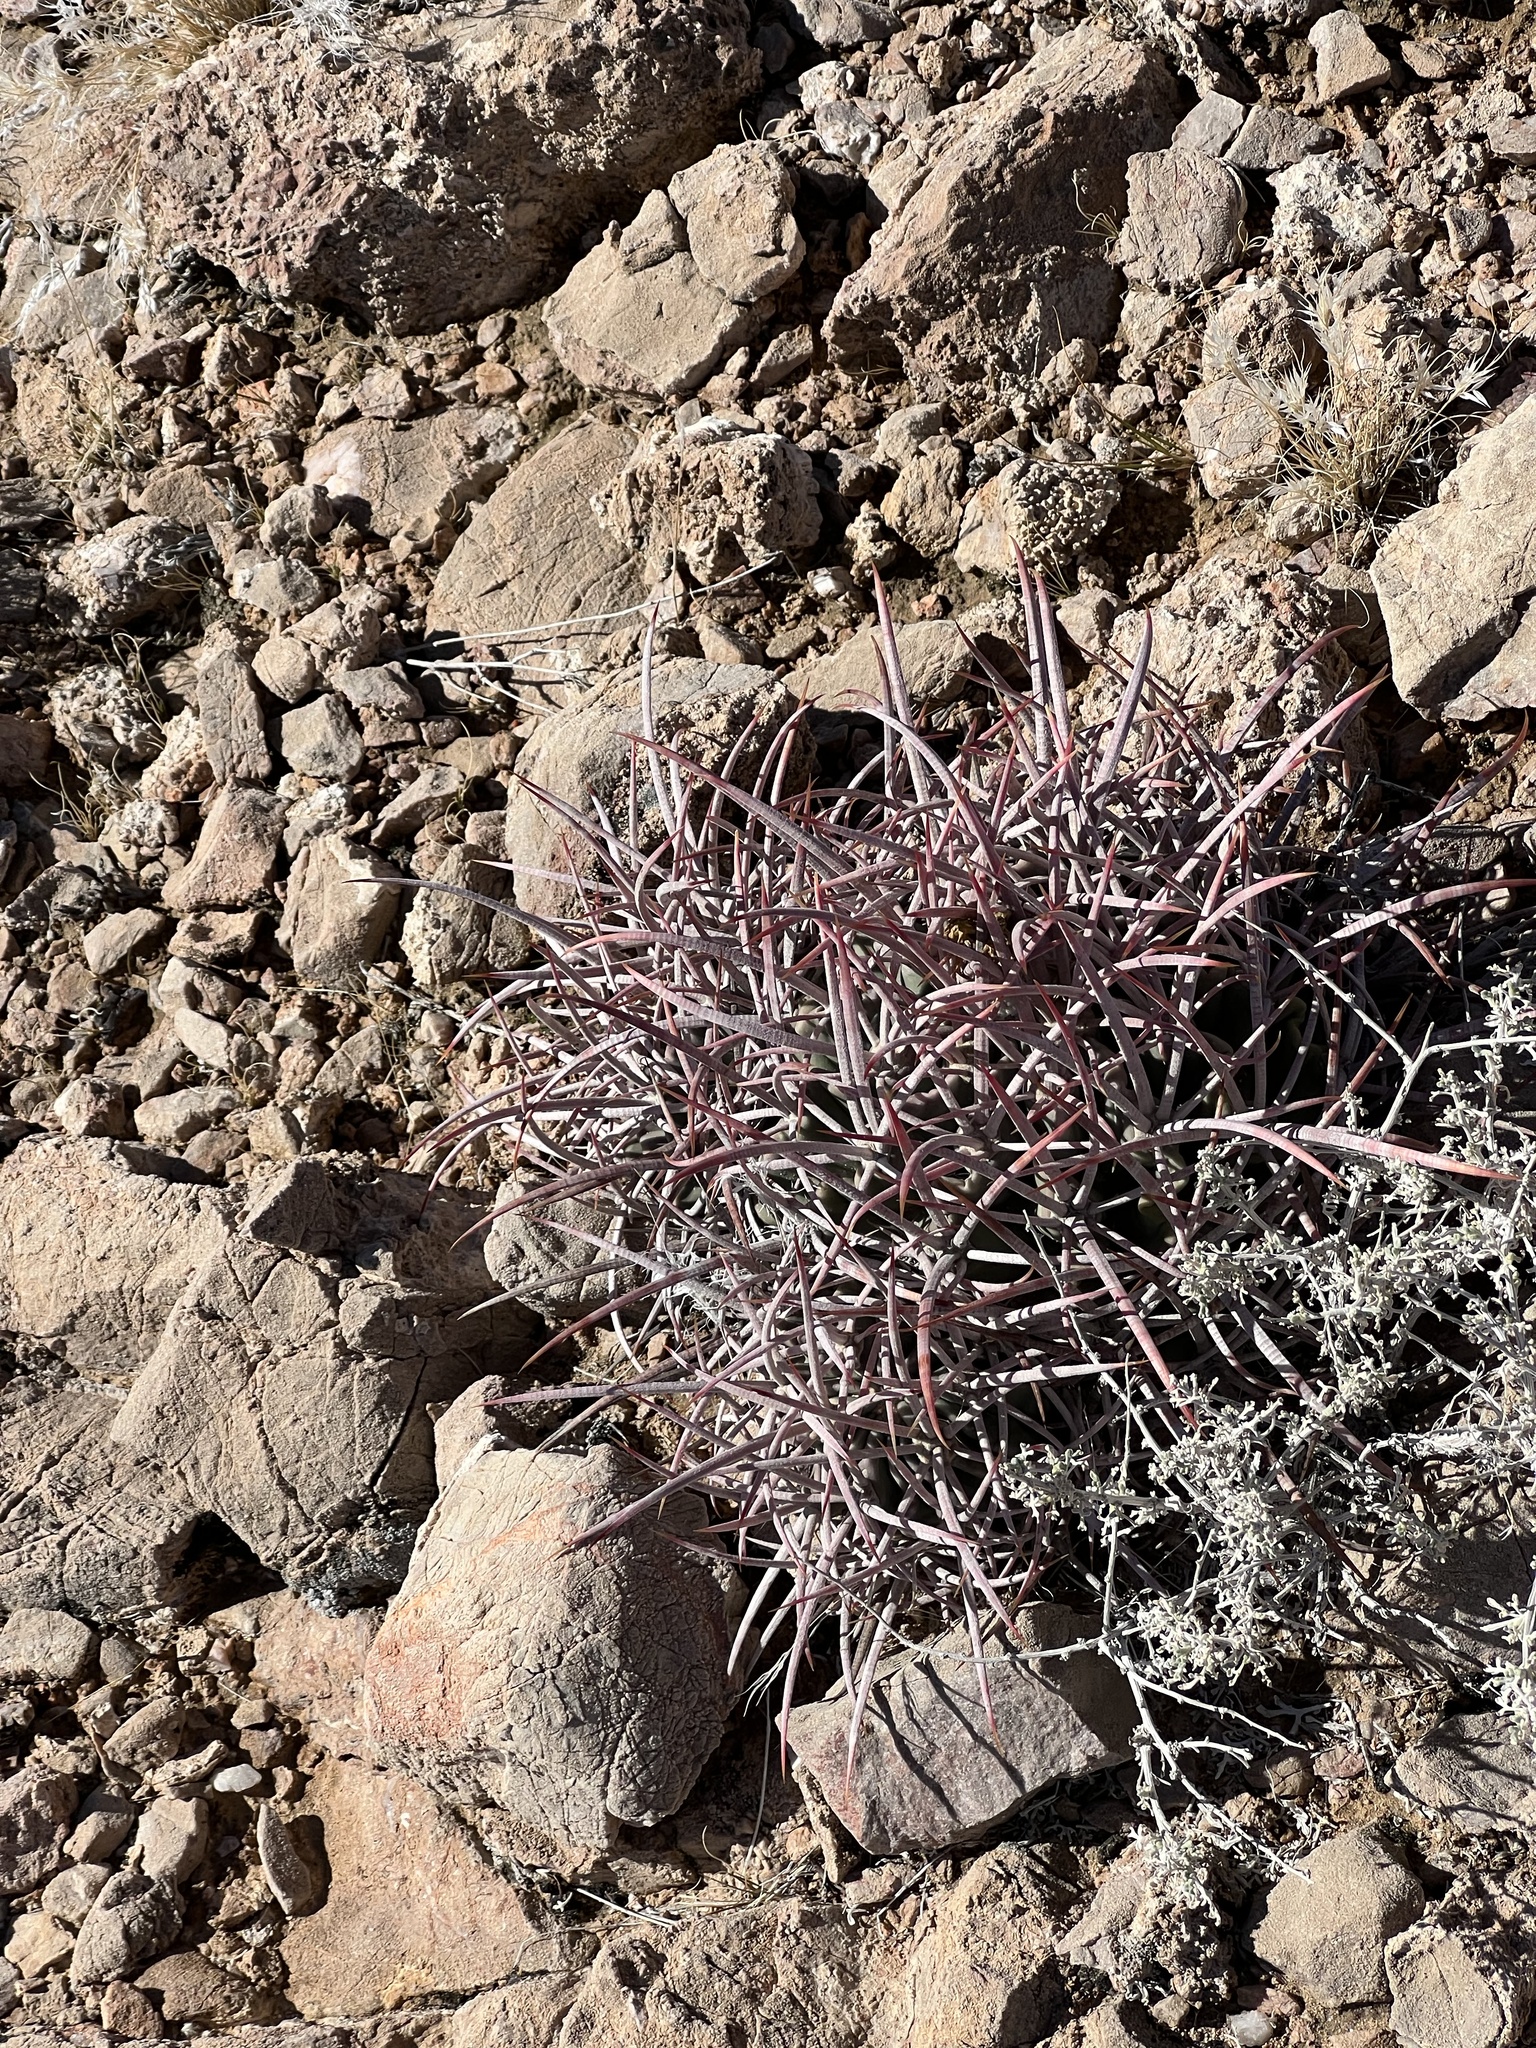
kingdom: Plantae
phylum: Tracheophyta
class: Magnoliopsida
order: Caryophyllales
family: Cactaceae
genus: Echinocactus
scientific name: Echinocactus polycephalus
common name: Cottontop cactus
